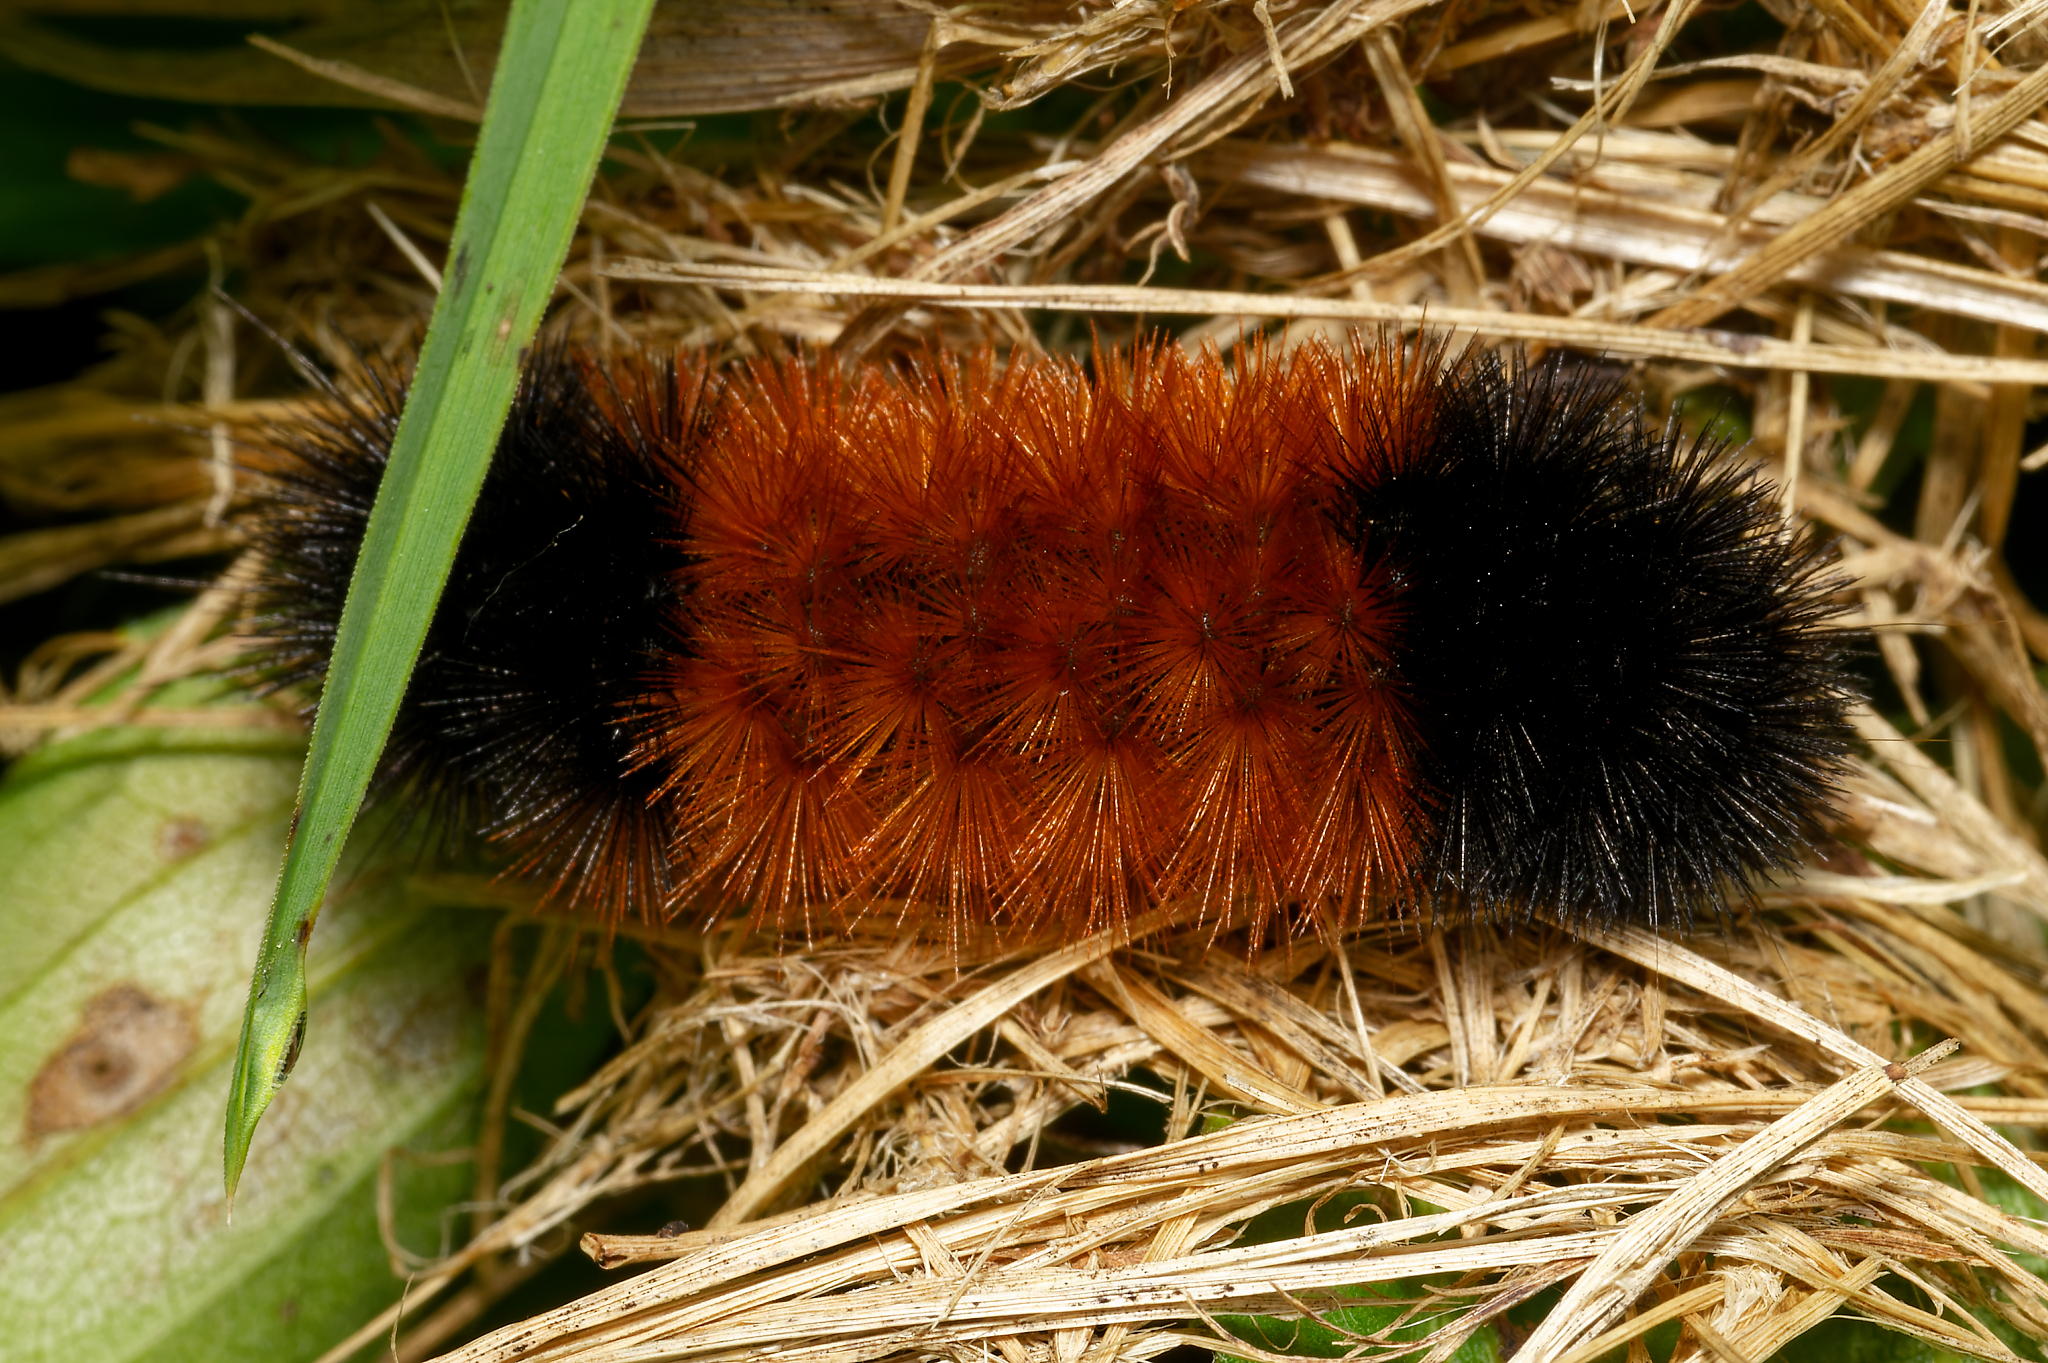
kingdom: Animalia
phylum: Arthropoda
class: Insecta
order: Lepidoptera
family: Erebidae
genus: Pyrrharctia
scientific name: Pyrrharctia isabella
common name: Isabella tiger moth
